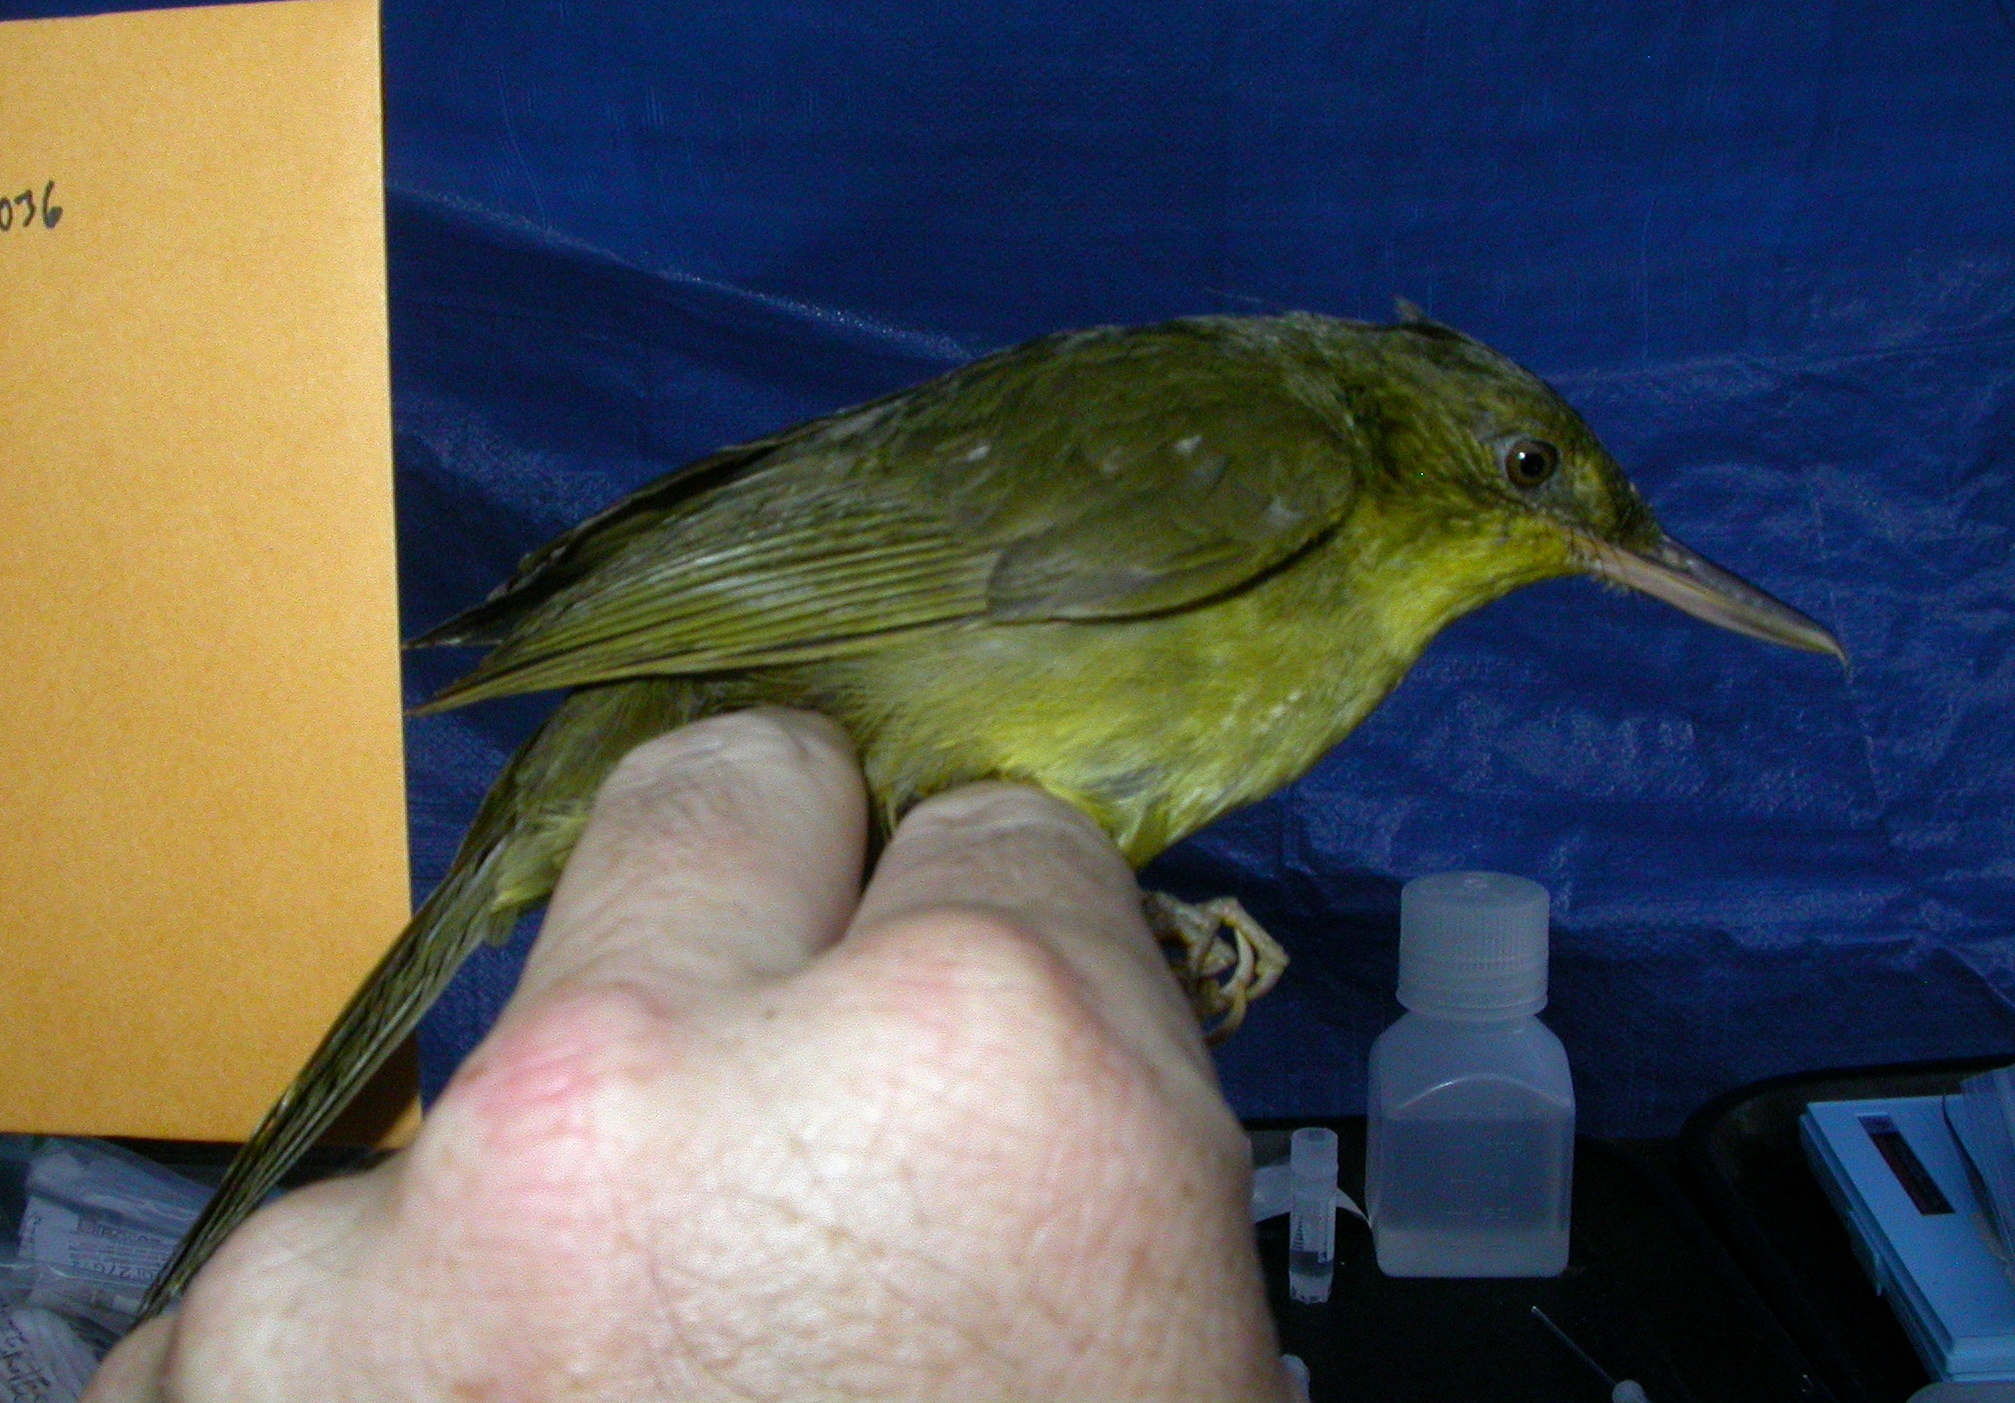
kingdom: Animalia
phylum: Chordata
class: Aves
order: Passeriformes
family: Bernieridae
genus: Bernieria
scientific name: Bernieria madagascariensis
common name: Long-billed bernieria
